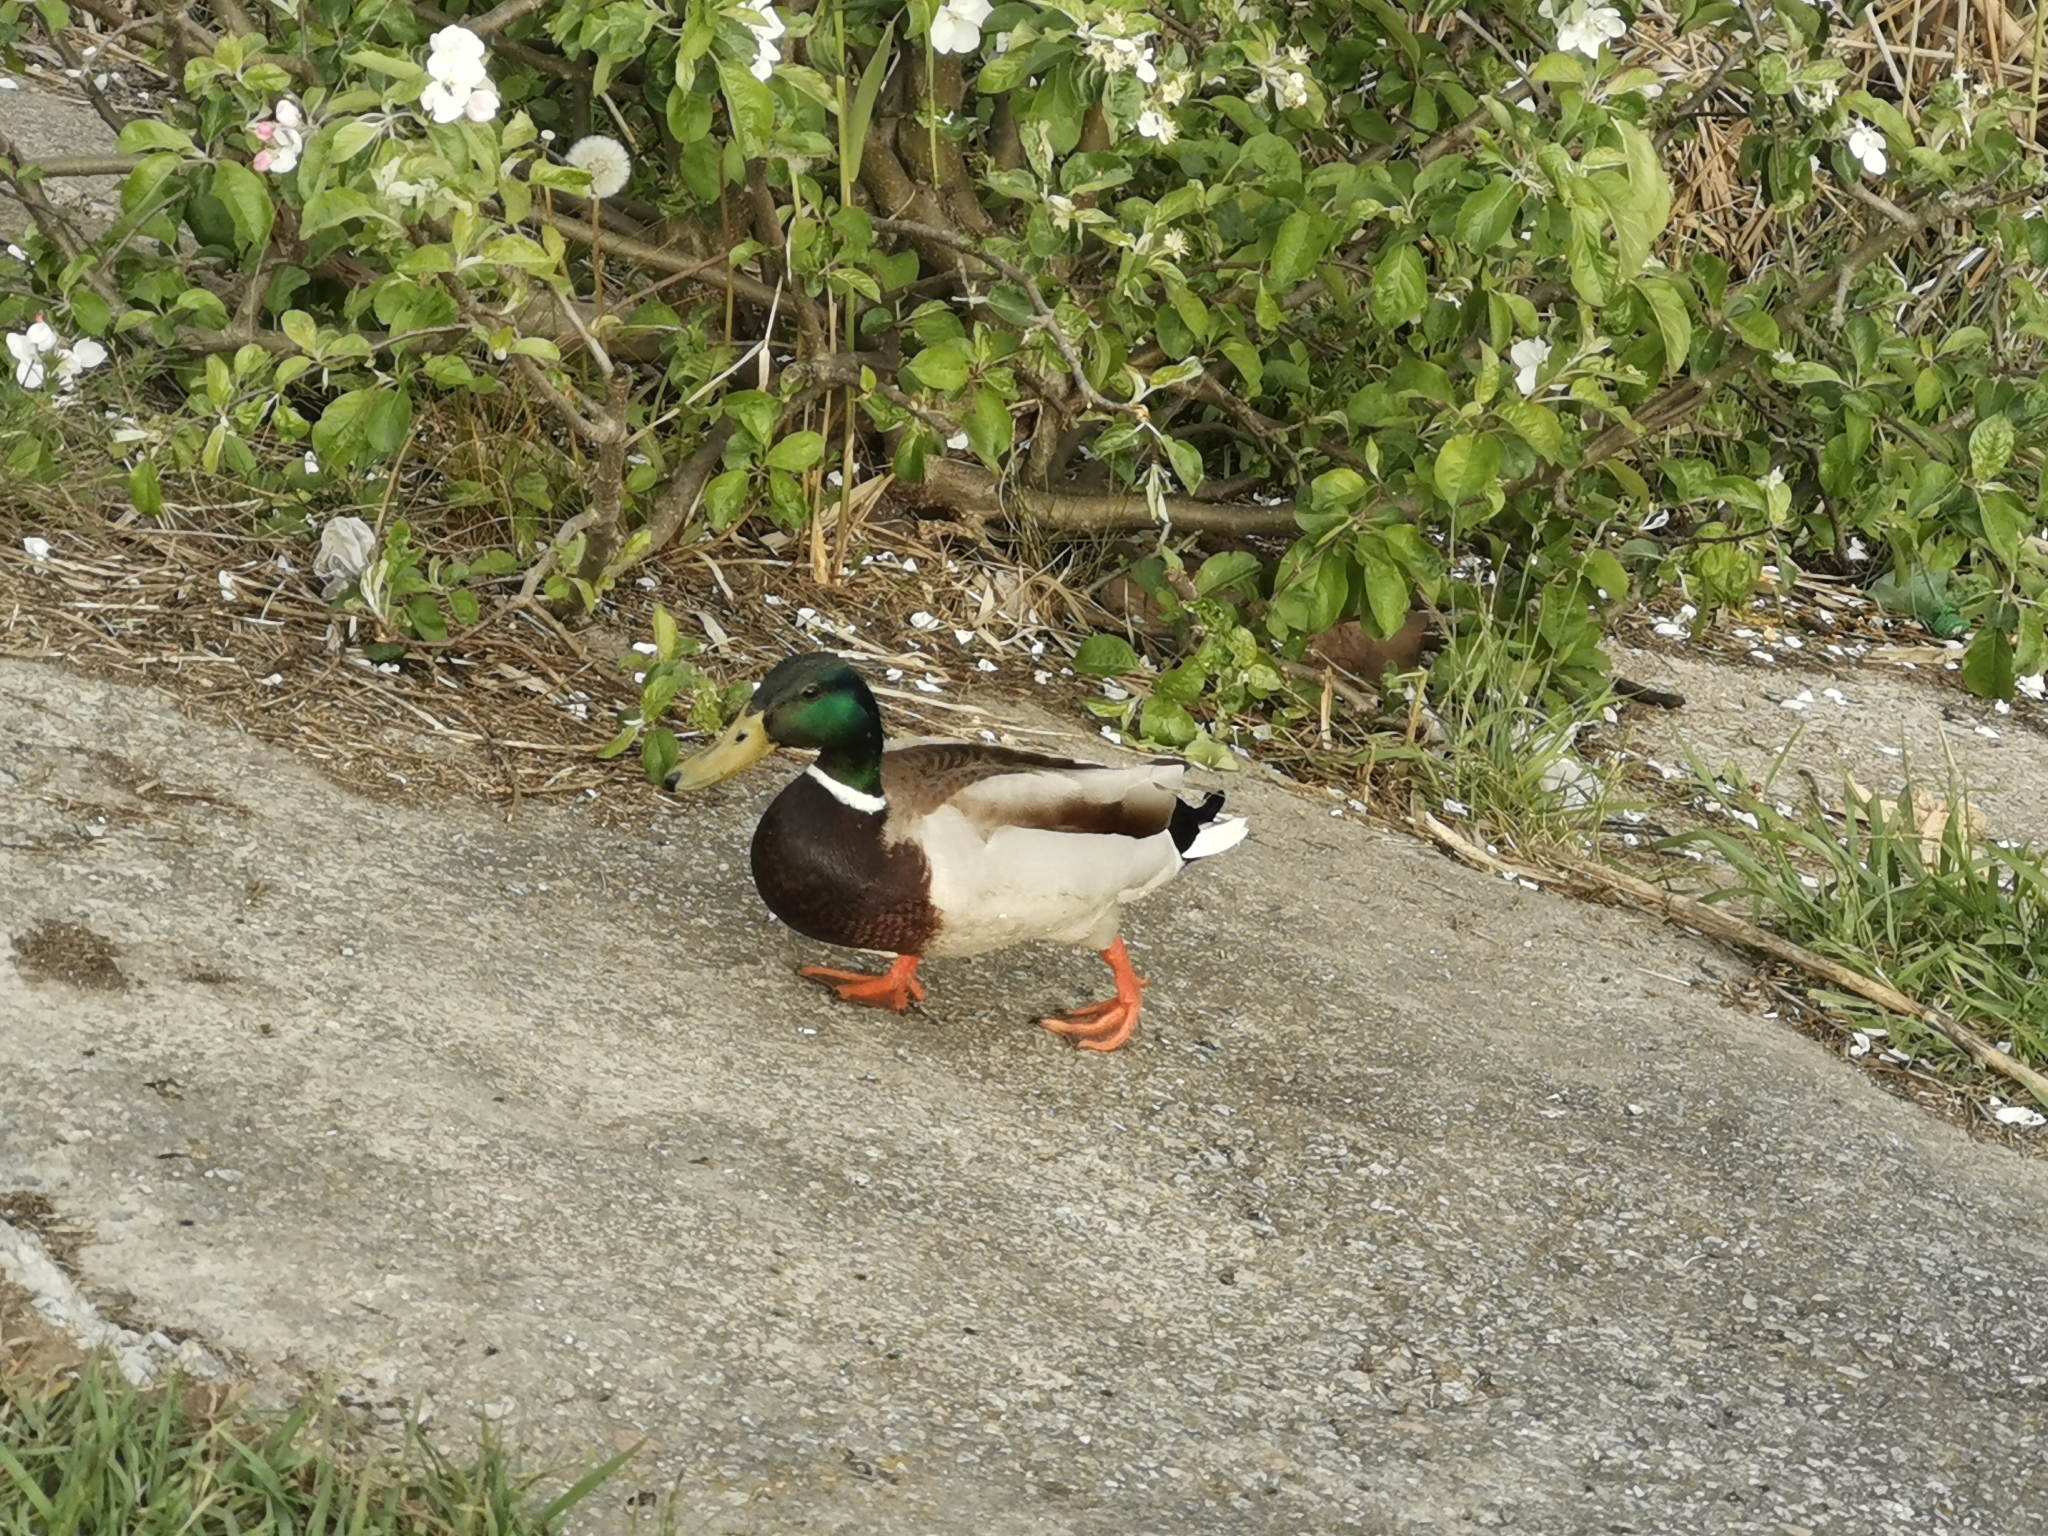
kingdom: Animalia
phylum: Chordata
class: Aves
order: Anseriformes
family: Anatidae
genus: Anas
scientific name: Anas platyrhynchos
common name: Mallard
